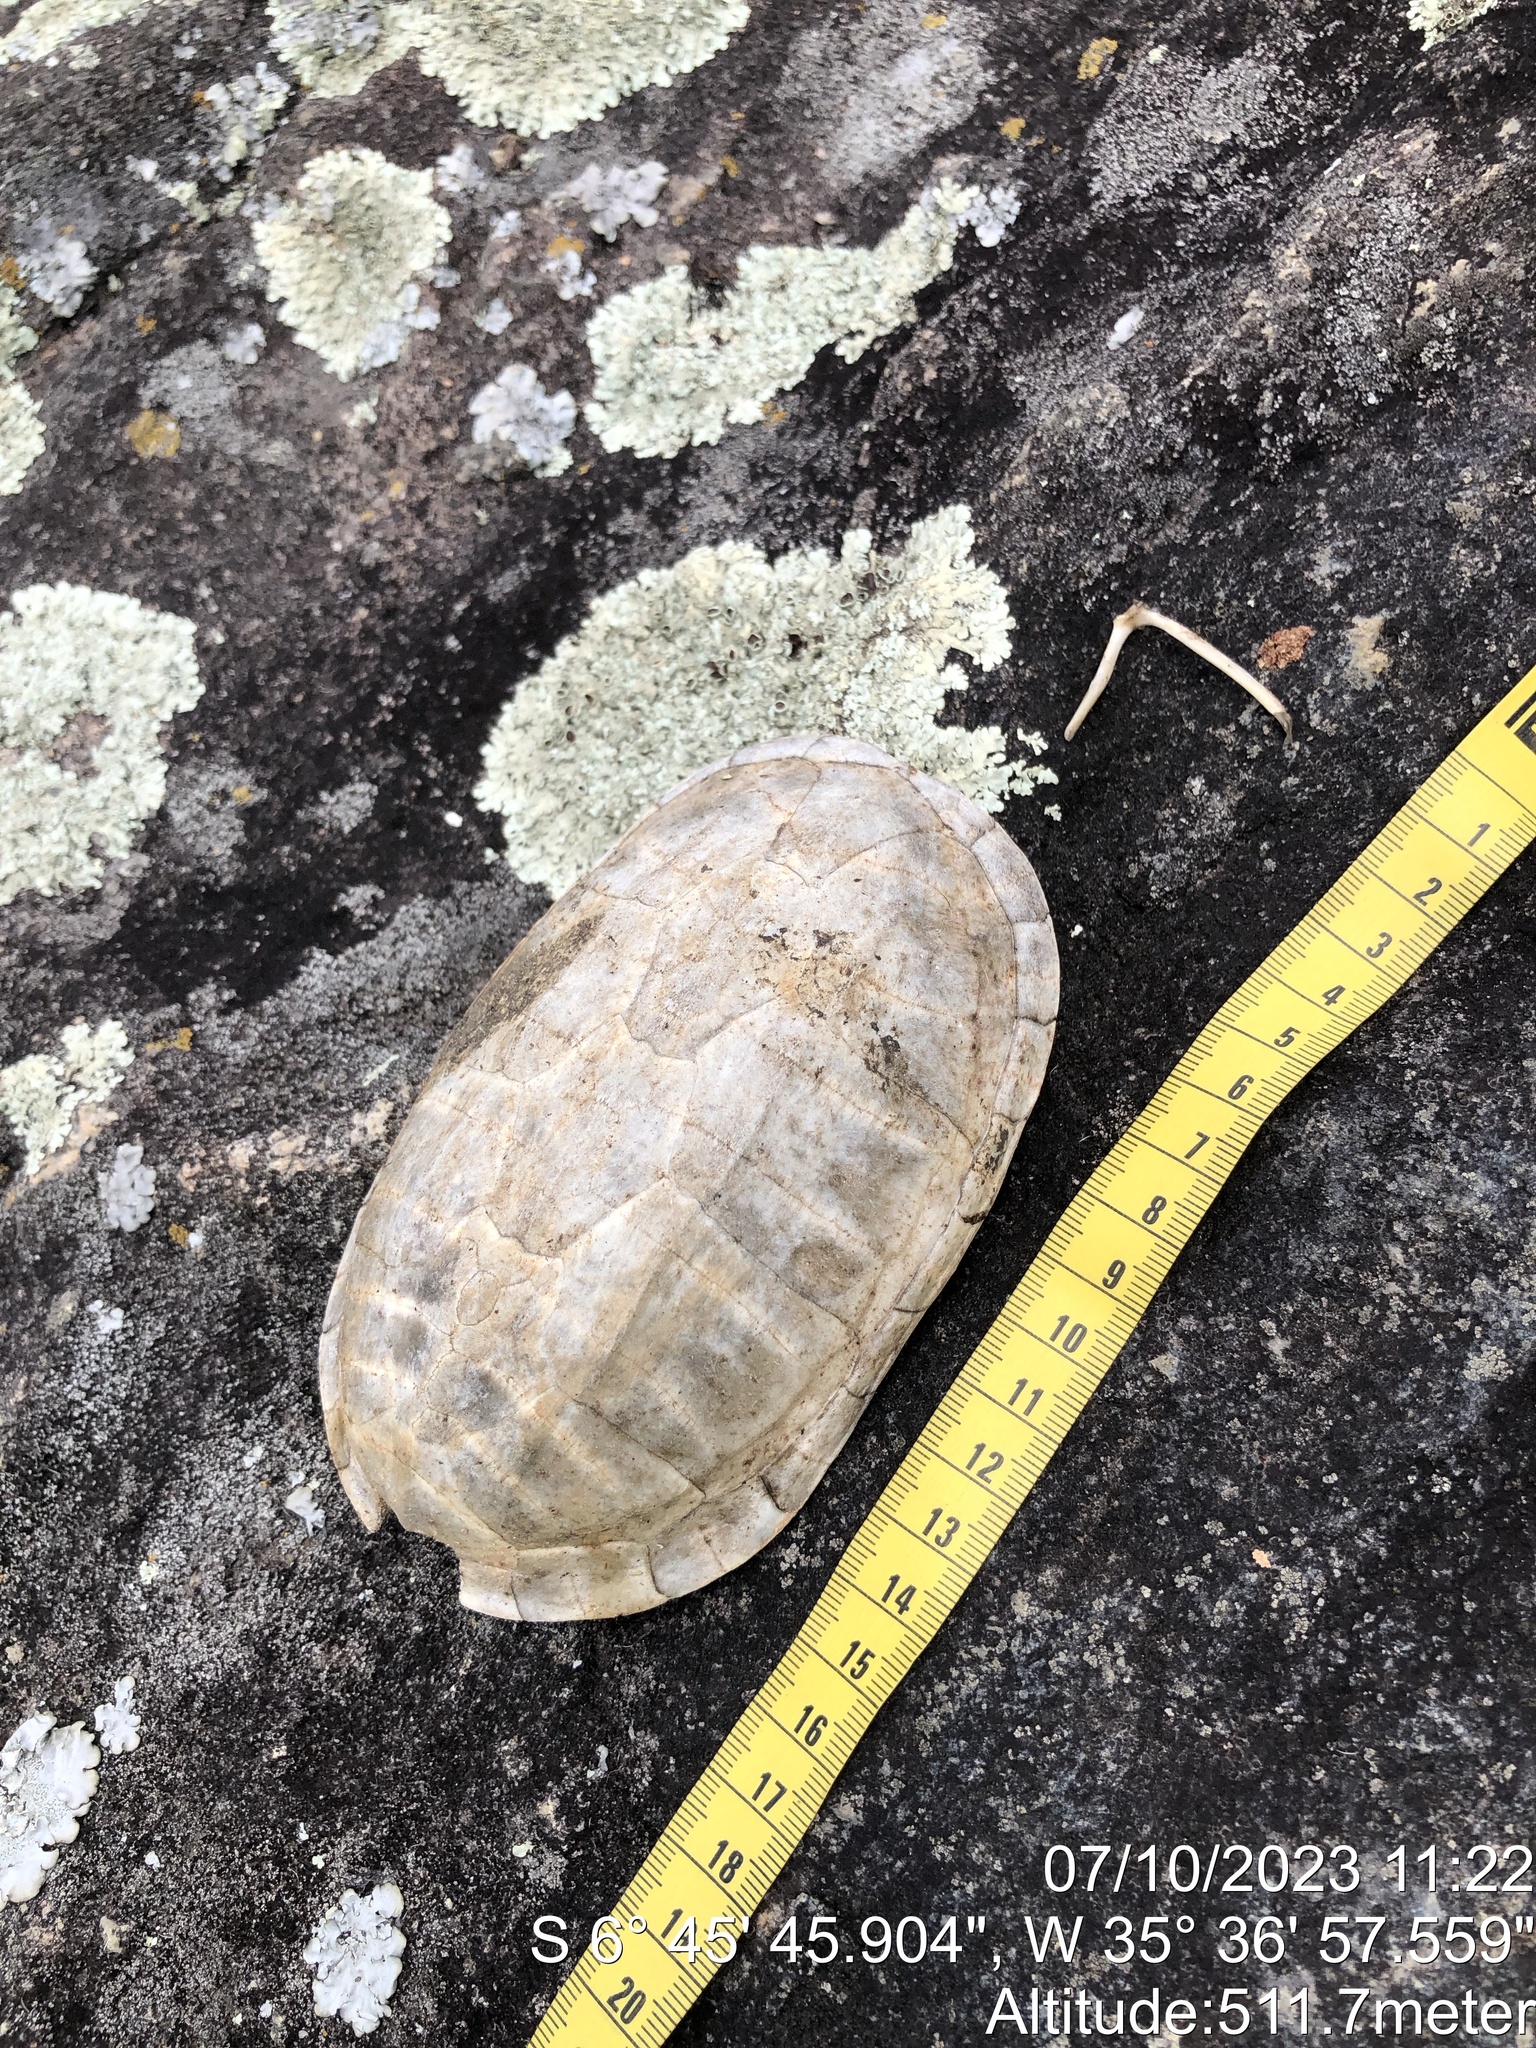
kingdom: Animalia
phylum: Chordata
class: Testudines
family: Kinosternidae
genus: Kinosternon
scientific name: Kinosternon scorpioides
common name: Scorpion mud turtle
